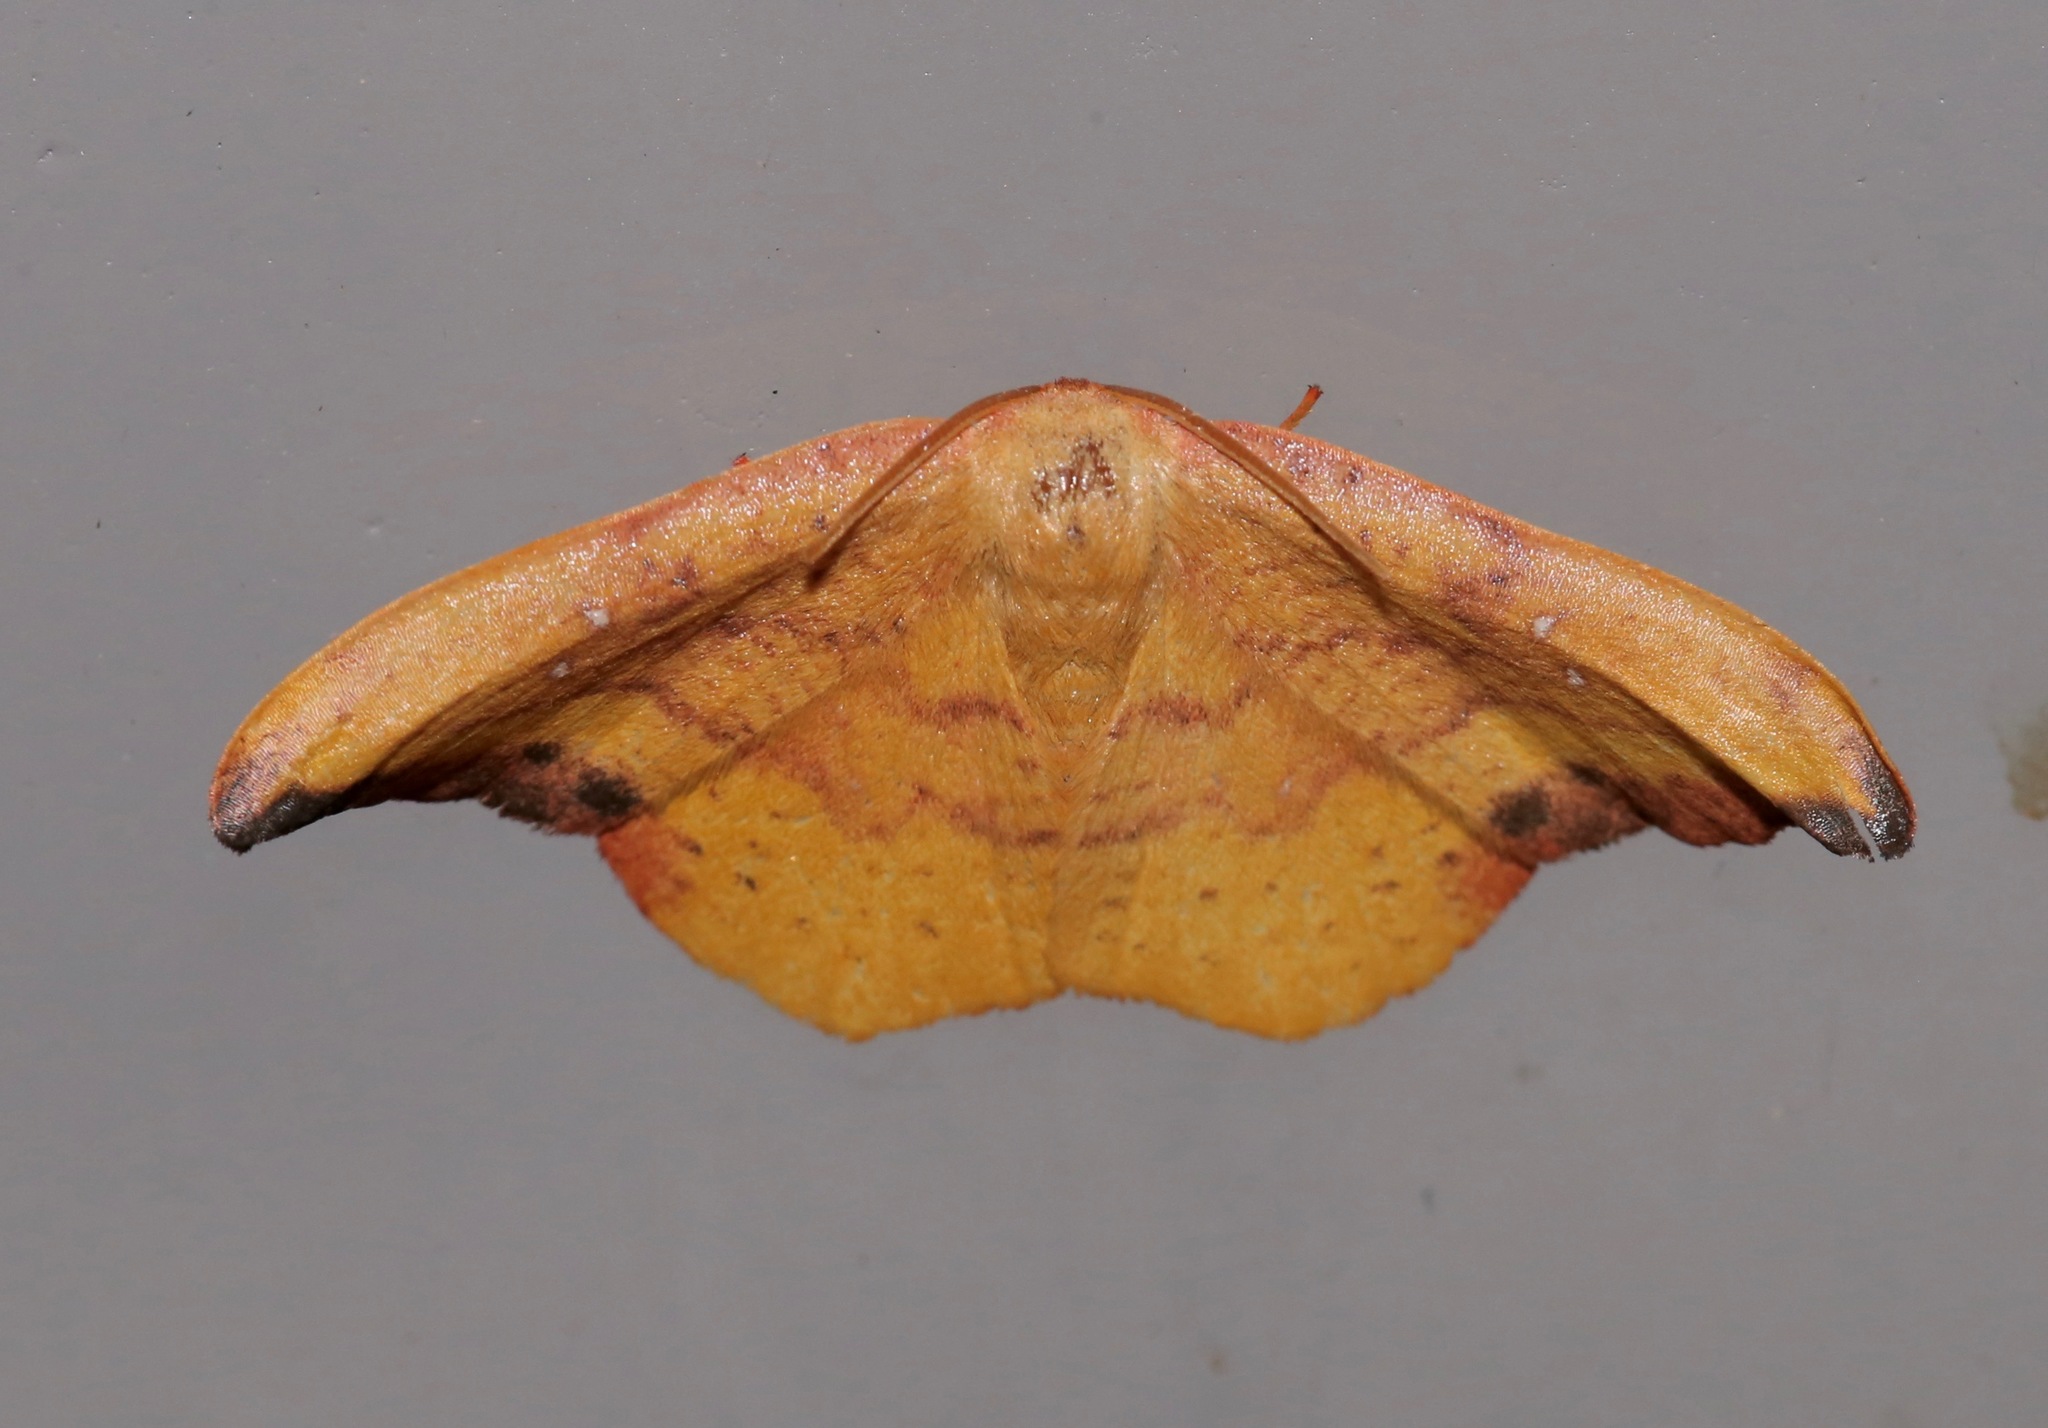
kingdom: Animalia
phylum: Arthropoda
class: Insecta
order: Lepidoptera
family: Drepanidae
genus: Oreta
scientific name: Oreta rosea
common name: Rose hooktip
